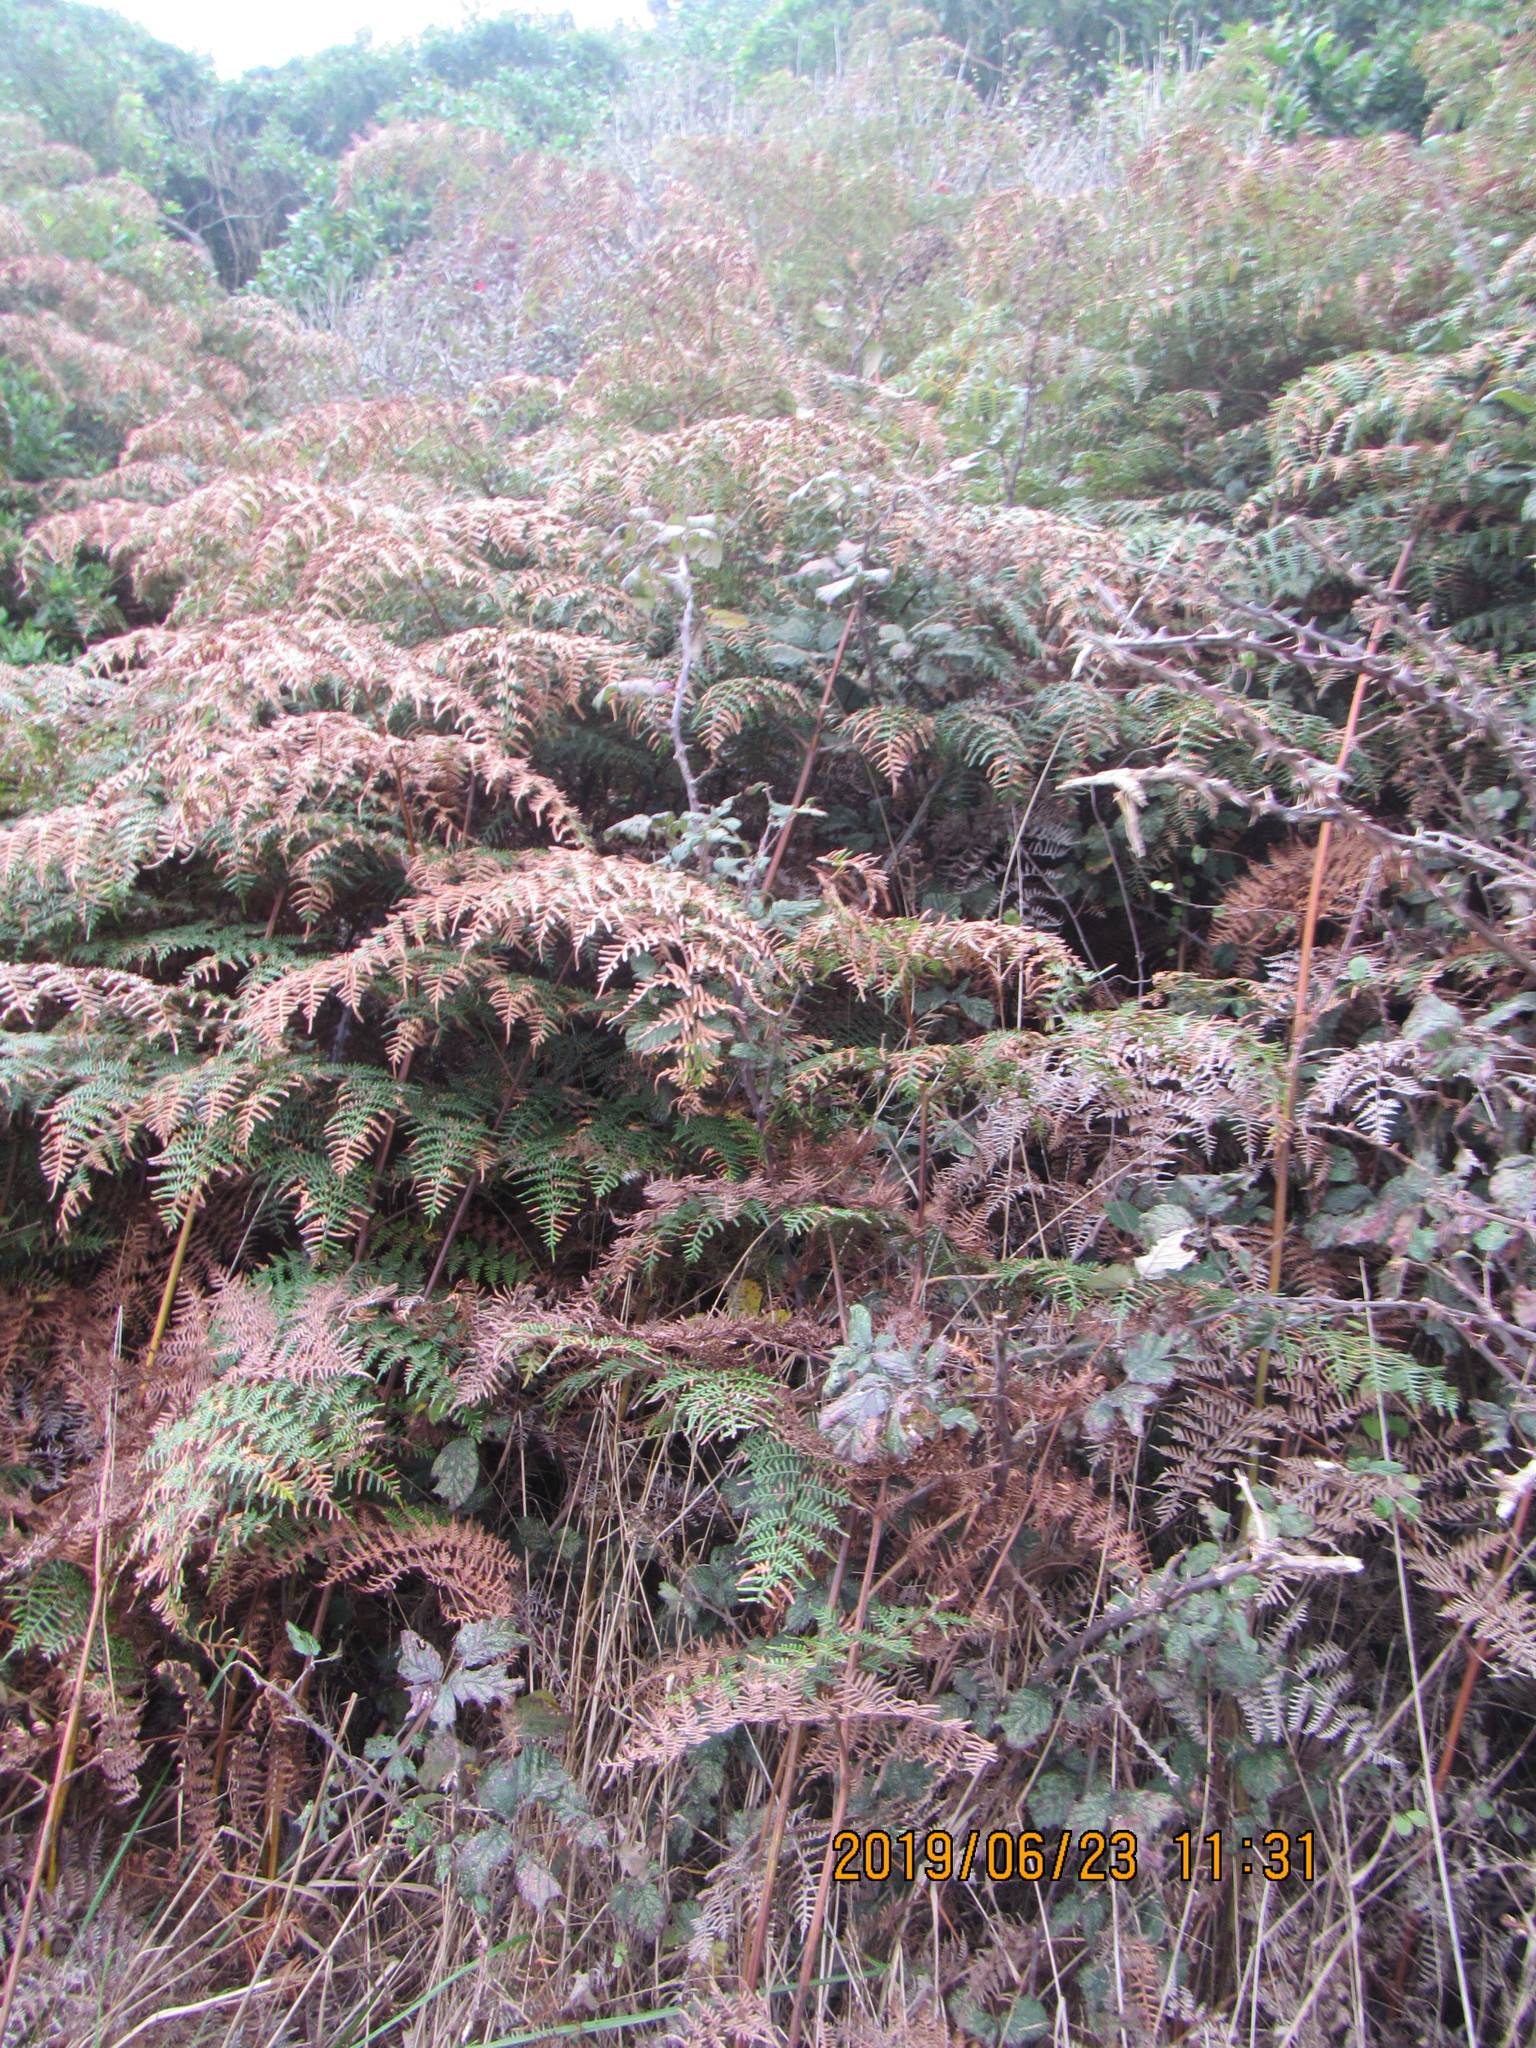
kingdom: Plantae
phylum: Tracheophyta
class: Polypodiopsida
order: Polypodiales
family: Dennstaedtiaceae
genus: Pteridium
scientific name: Pteridium esculentum
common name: Bracken fern
